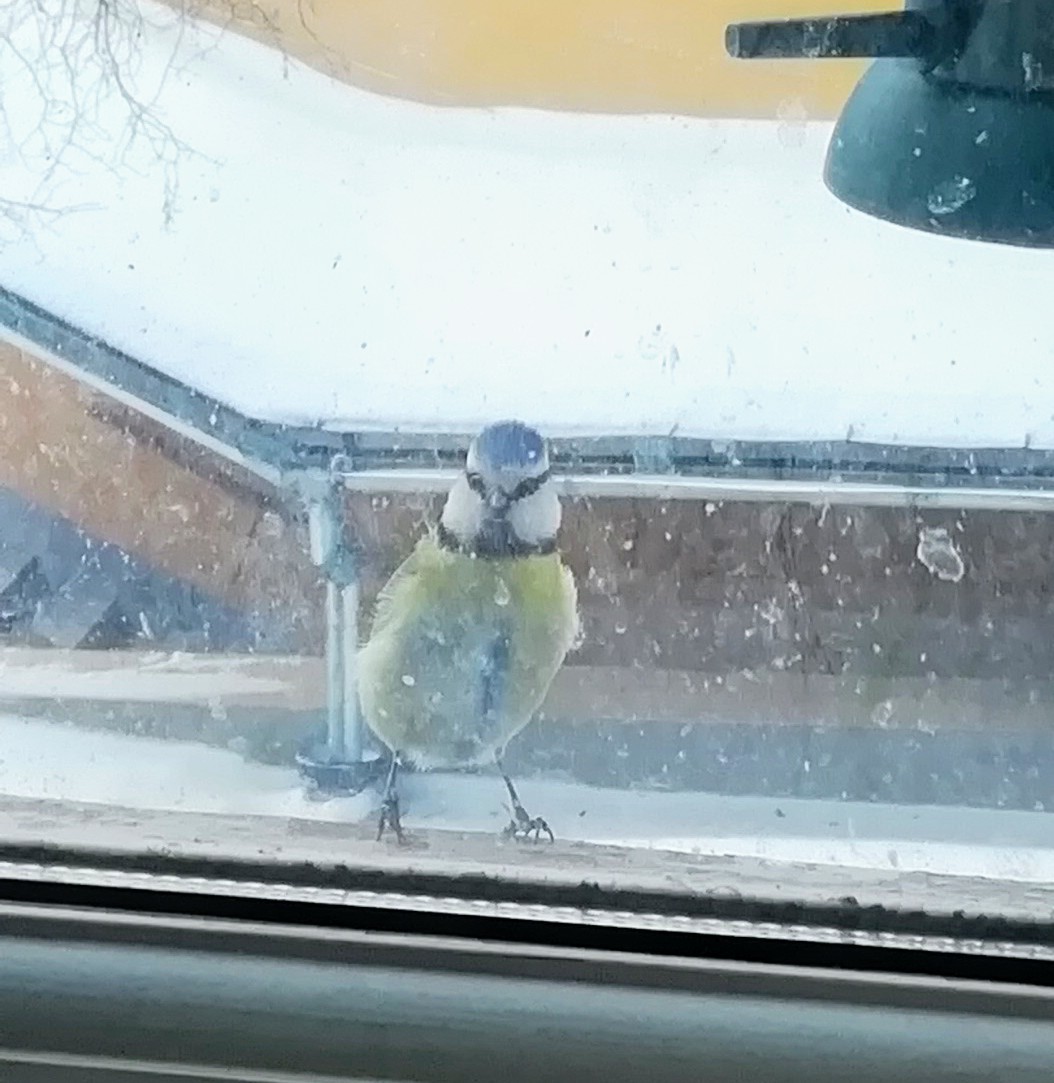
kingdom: Animalia
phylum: Chordata
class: Aves
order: Passeriformes
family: Paridae
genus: Cyanistes
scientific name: Cyanistes caeruleus
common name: Eurasian blue tit
